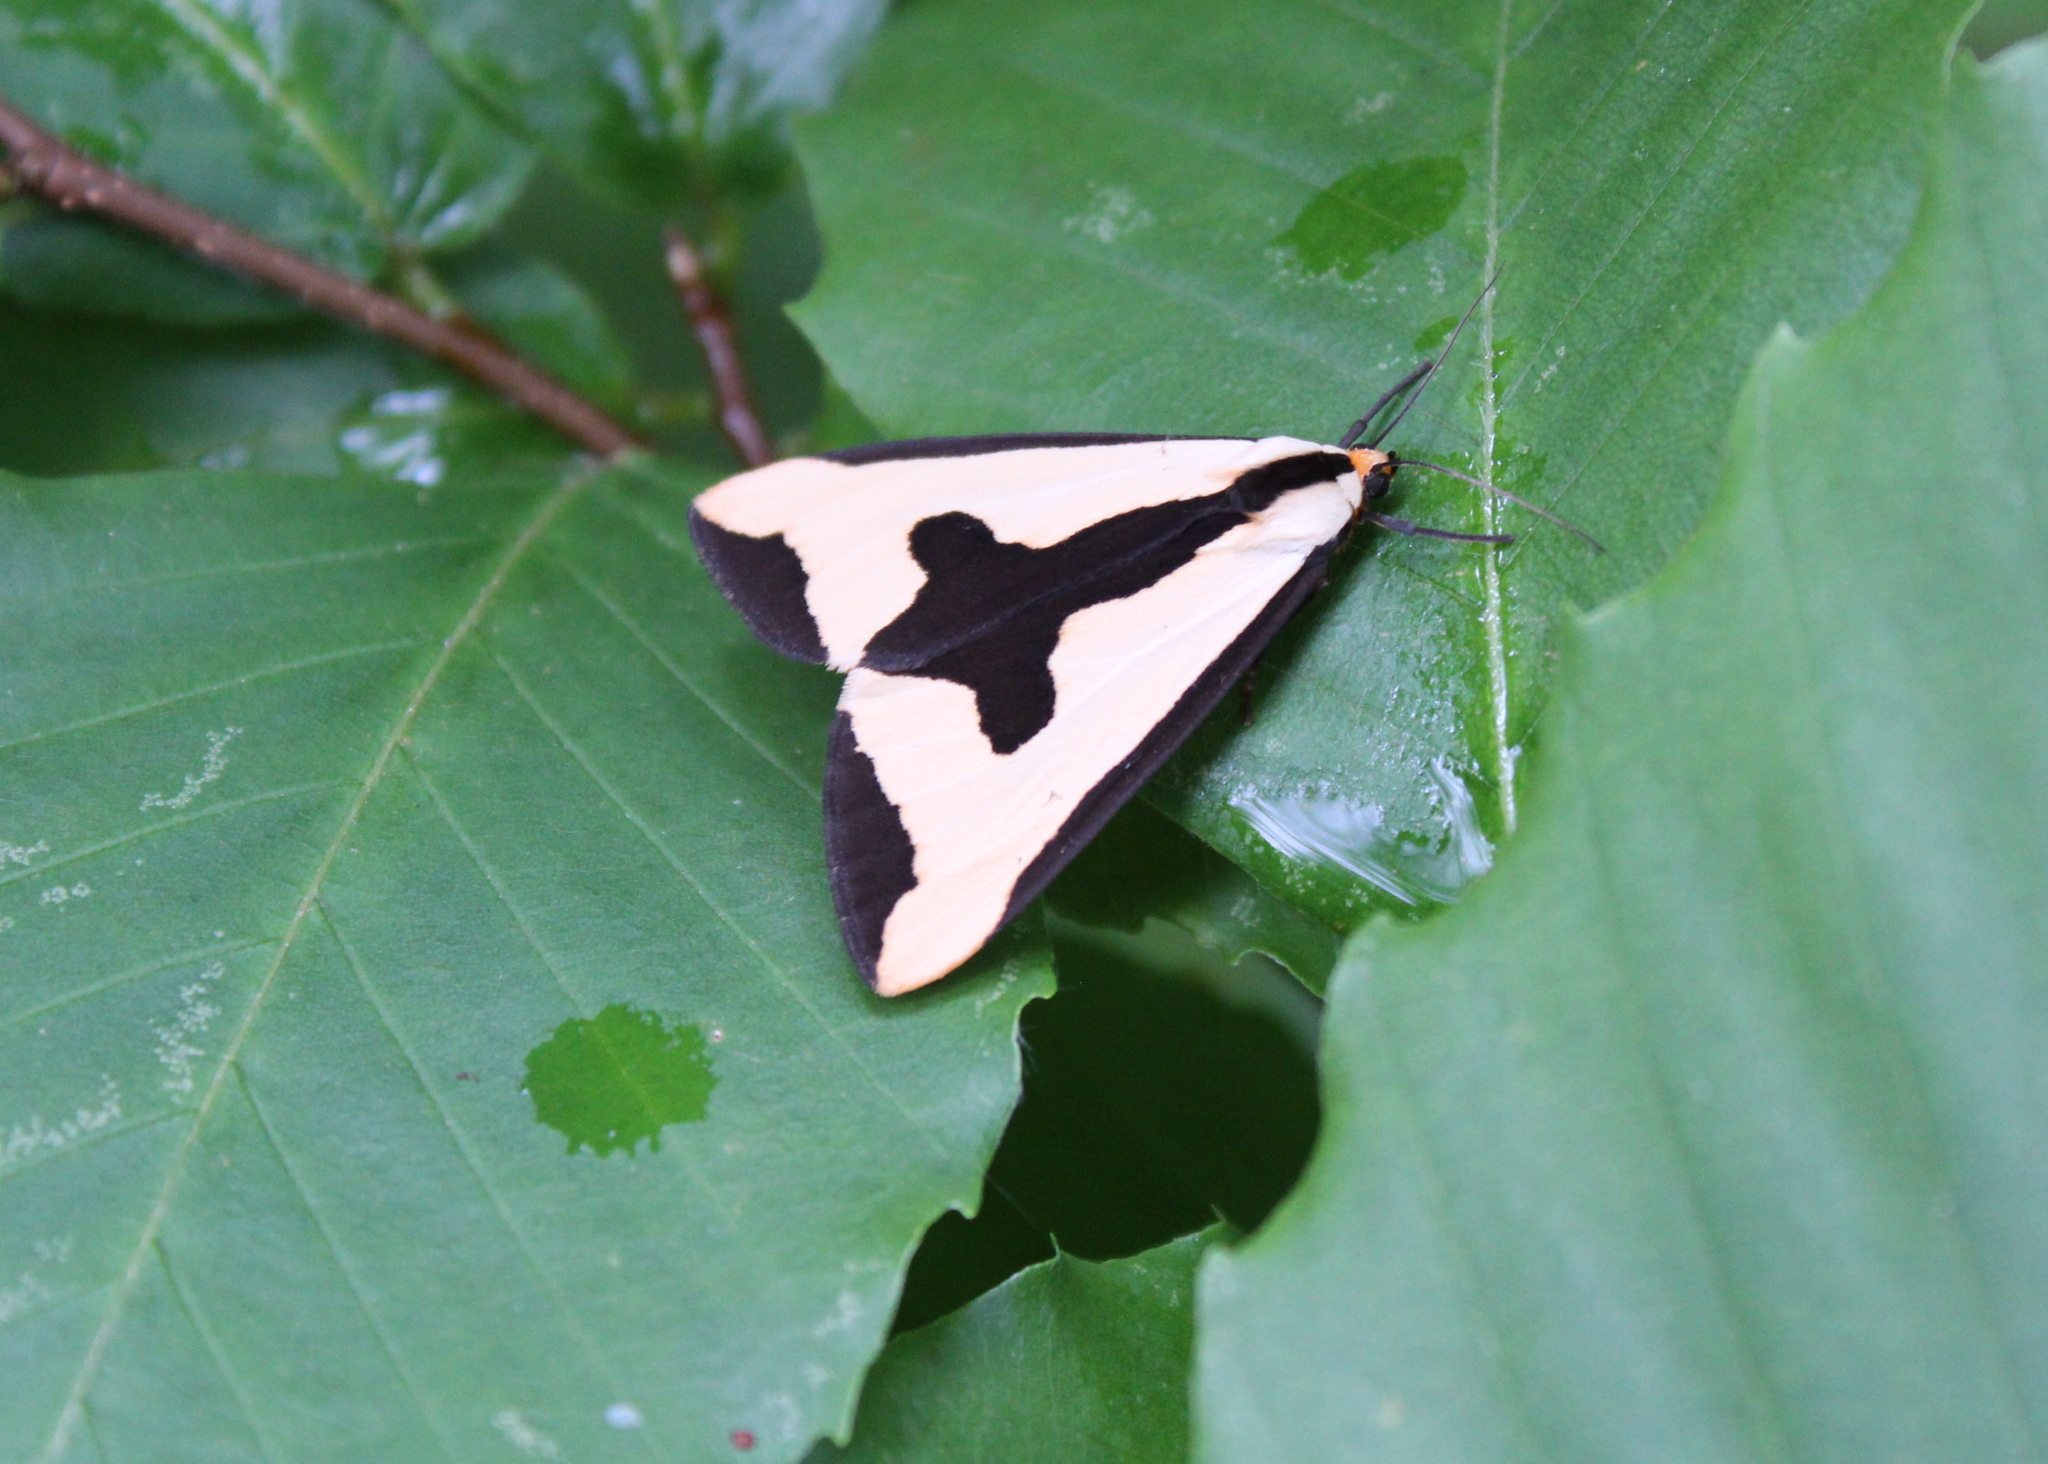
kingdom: Animalia
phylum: Arthropoda
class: Insecta
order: Lepidoptera
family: Erebidae
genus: Haploa
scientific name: Haploa clymene
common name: Clymene moth
